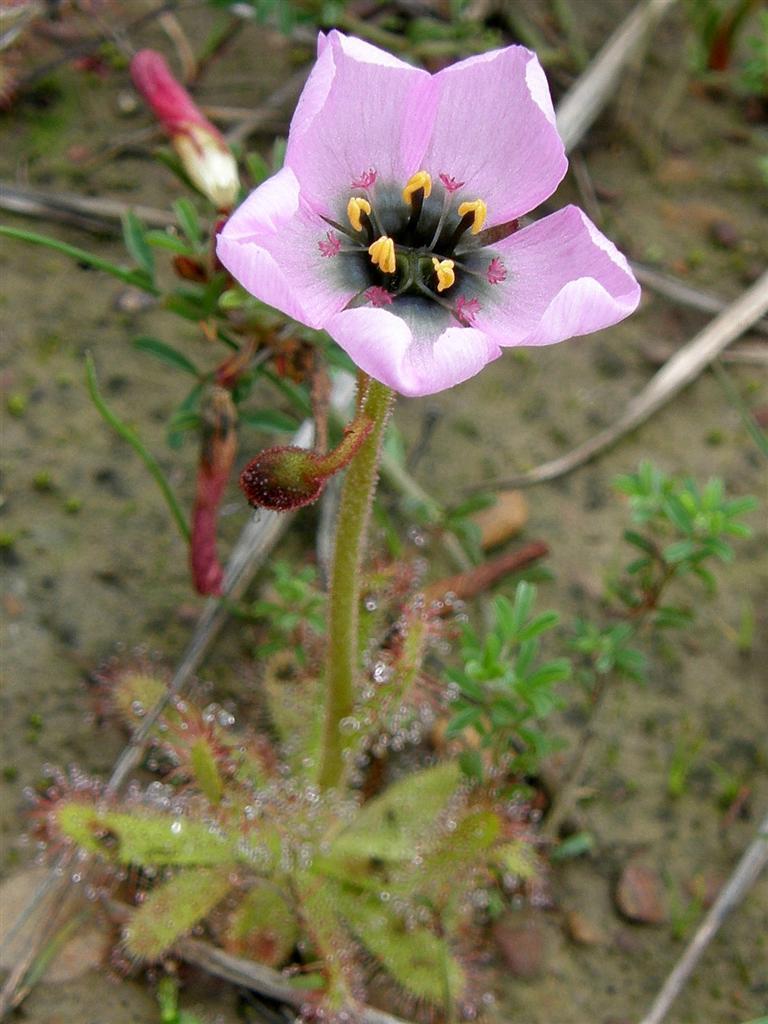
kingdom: Plantae
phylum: Tracheophyta
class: Magnoliopsida
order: Caryophyllales
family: Droseraceae
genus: Drosera
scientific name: Drosera cistiflora
